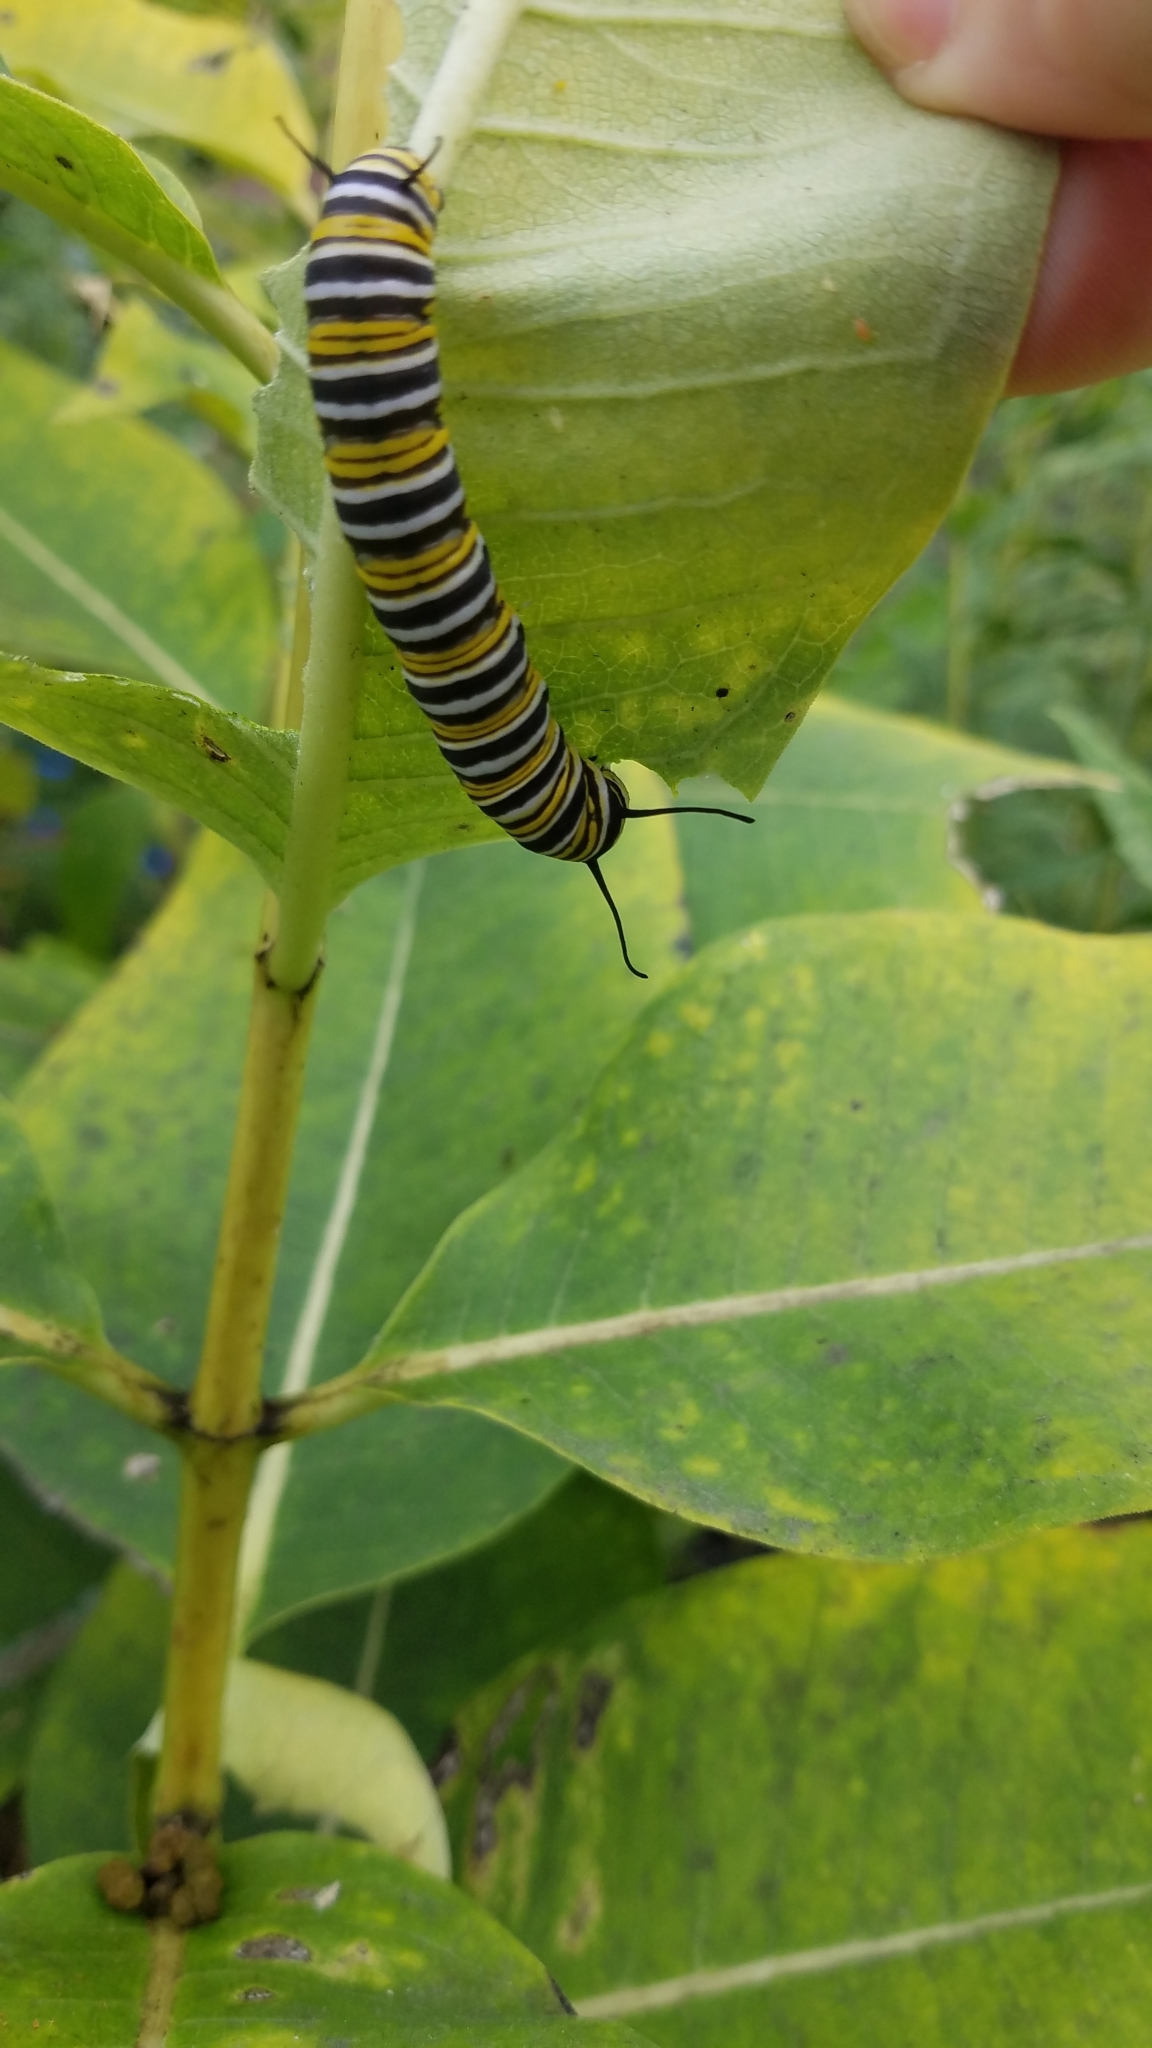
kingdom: Animalia
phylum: Arthropoda
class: Insecta
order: Lepidoptera
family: Nymphalidae
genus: Danaus
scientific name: Danaus plexippus
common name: Monarch
